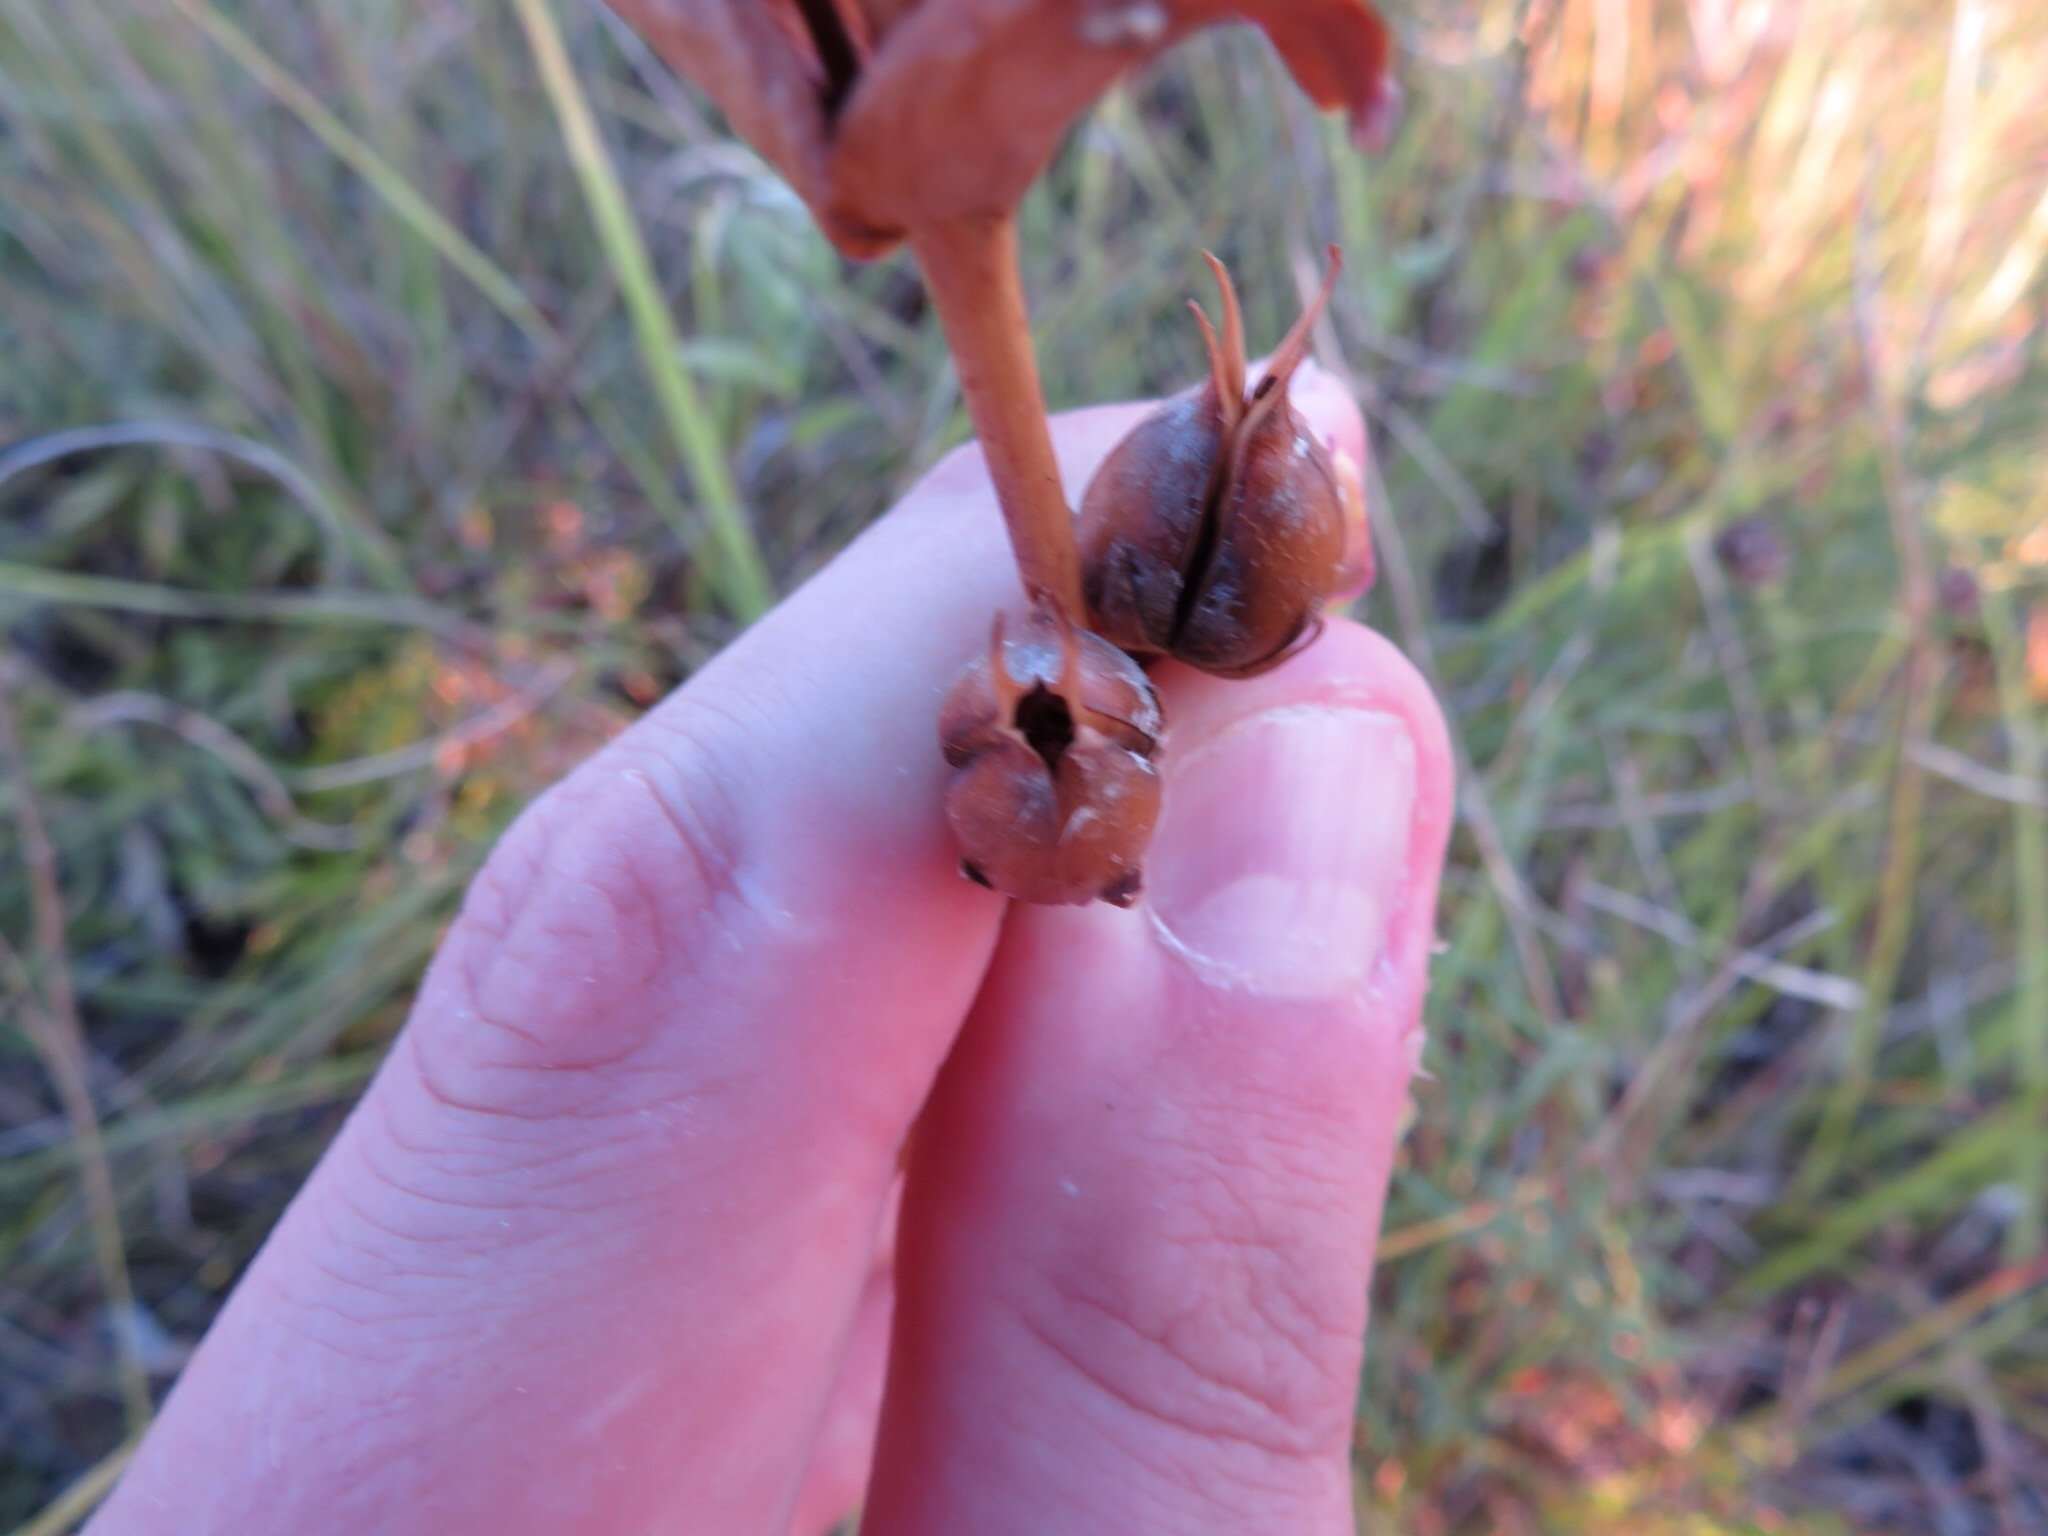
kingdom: Plantae
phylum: Tracheophyta
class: Magnoliopsida
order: Lamiales
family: Plantaginaceae
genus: Penstemon
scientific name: Penstemon
